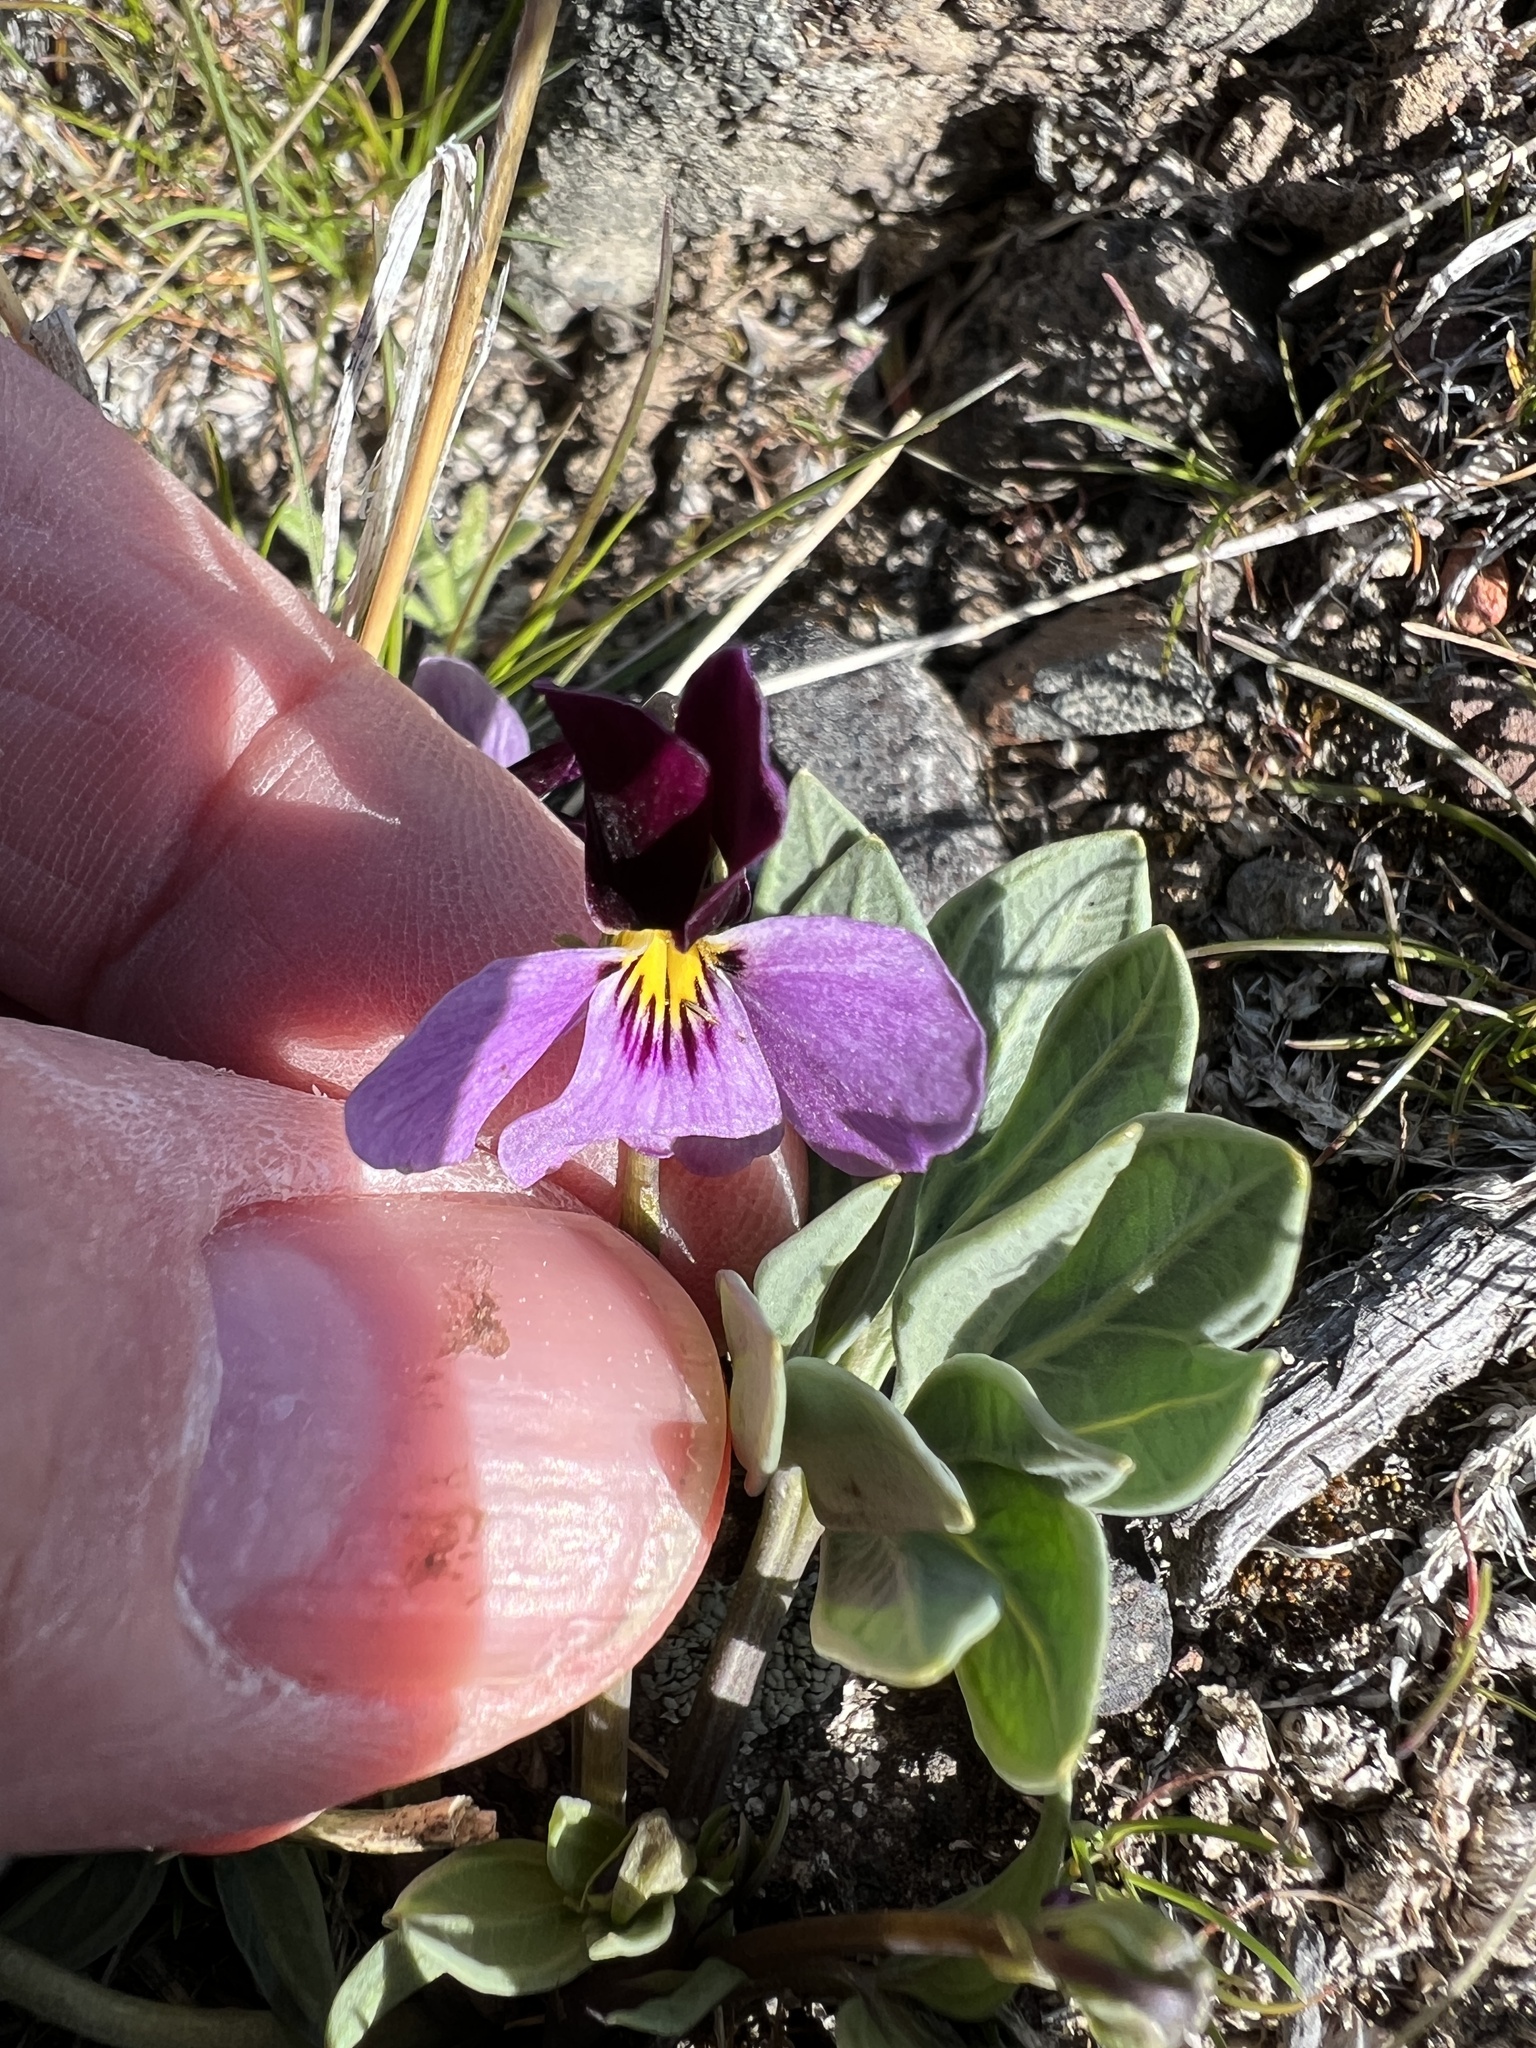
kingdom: Plantae
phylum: Tracheophyta
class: Magnoliopsida
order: Malpighiales
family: Violaceae
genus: Viola
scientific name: Viola trinervata
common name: Sagebrush violet
